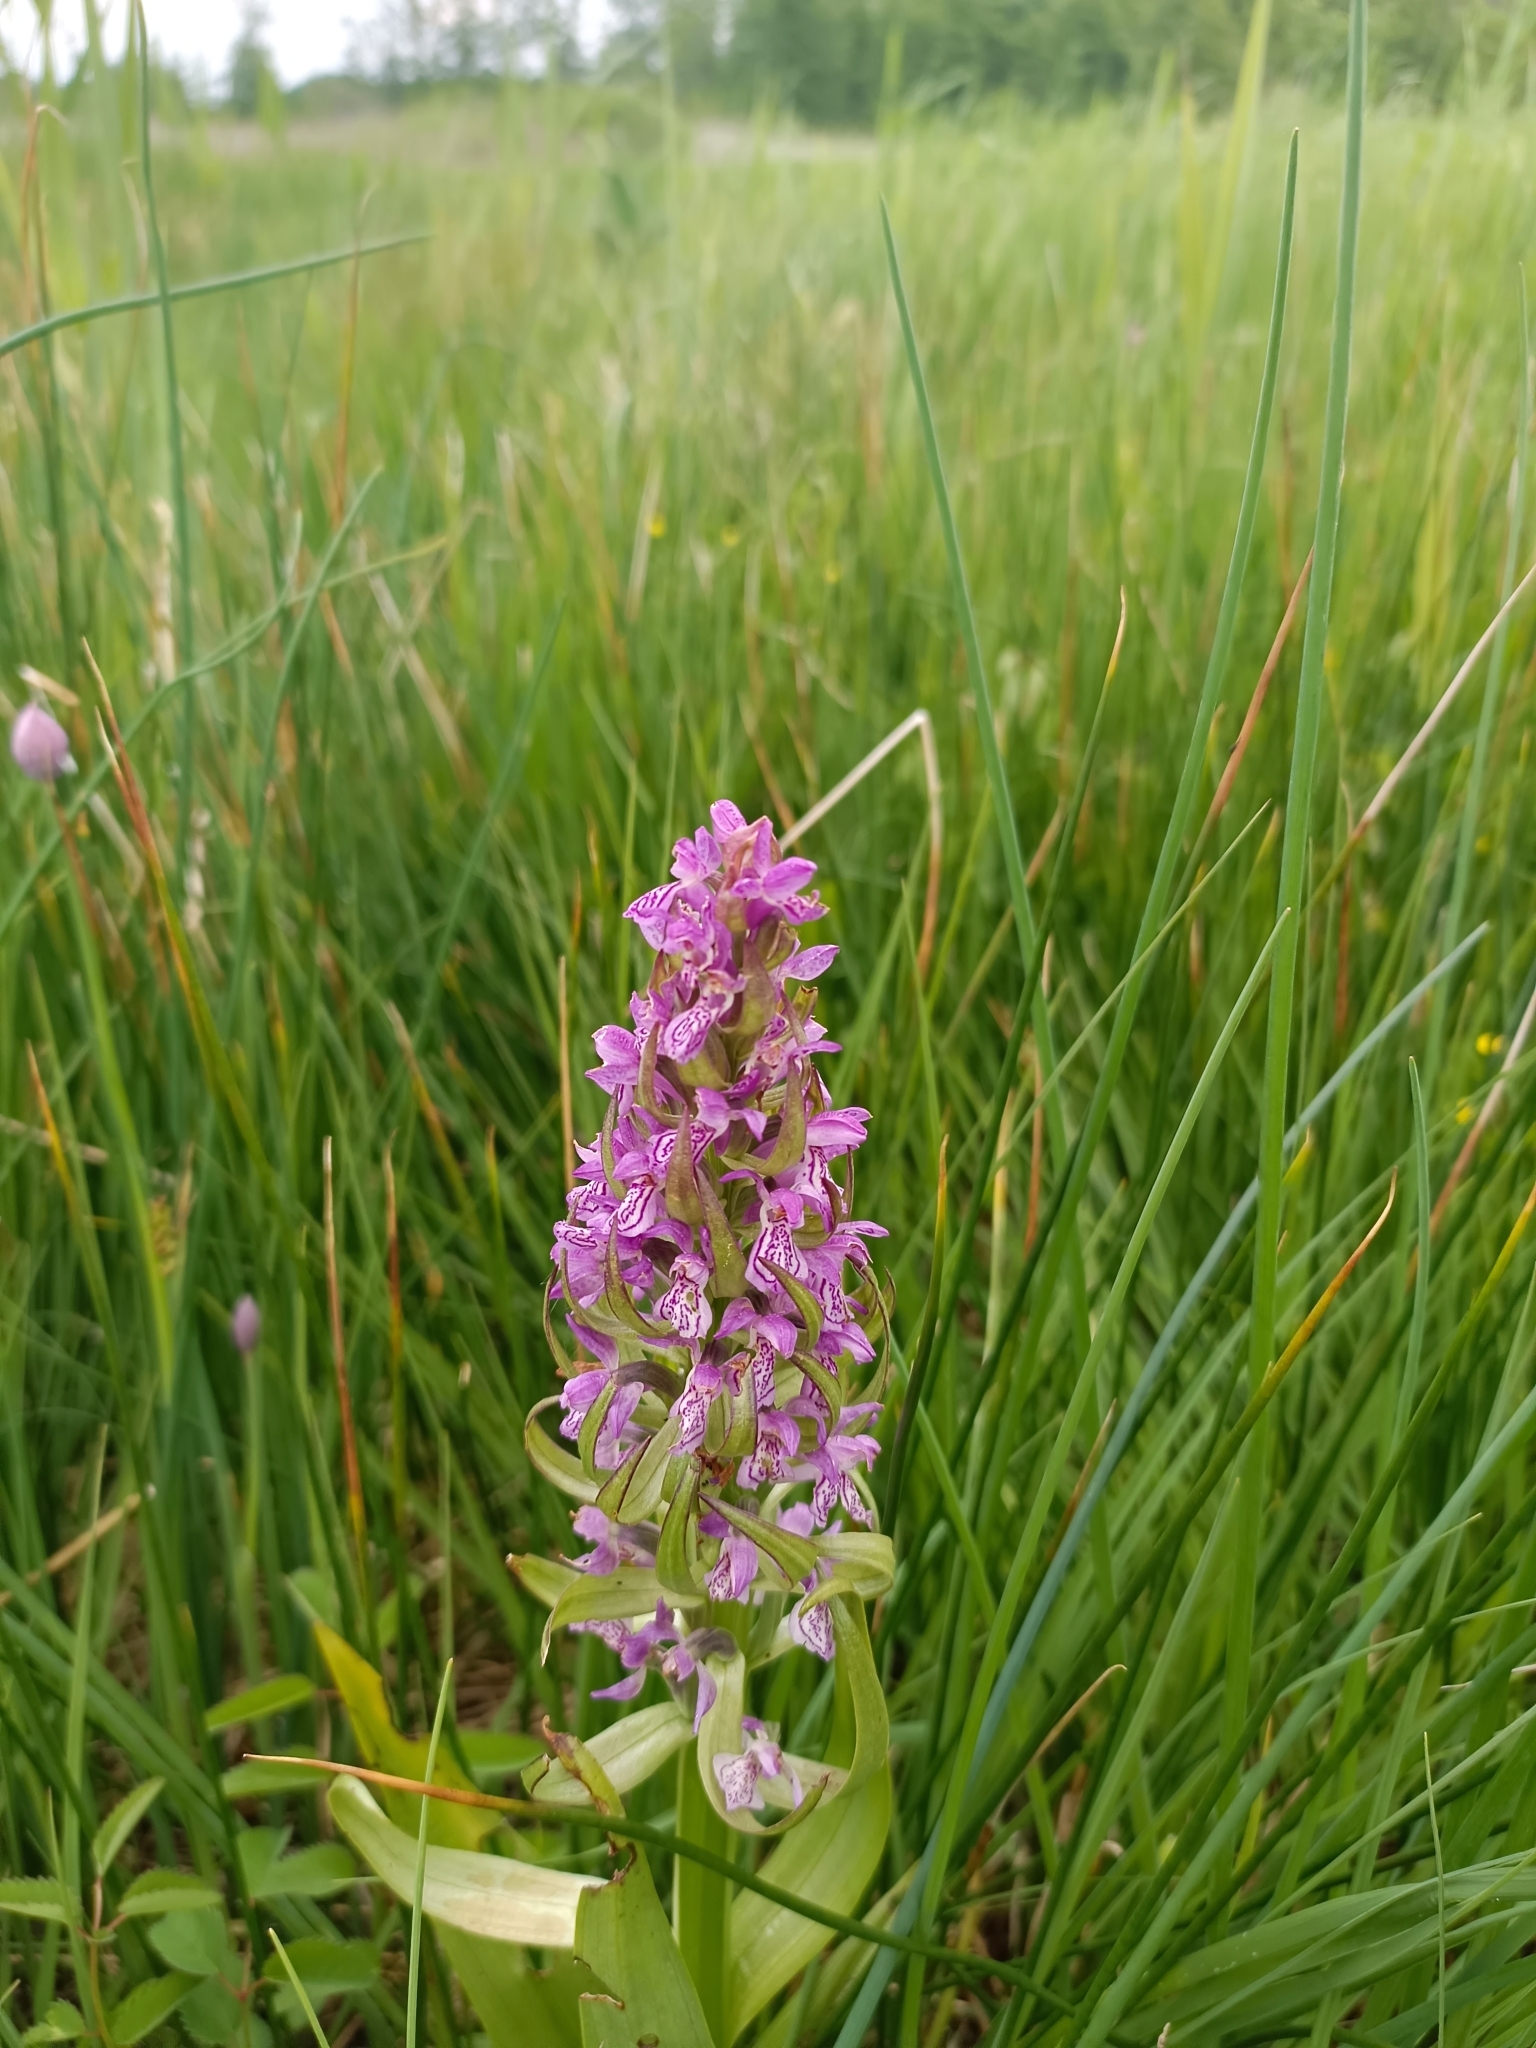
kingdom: Plantae
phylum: Tracheophyta
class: Liliopsida
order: Asparagales
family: Orchidaceae
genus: Dactylorhiza
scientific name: Dactylorhiza incarnata
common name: Early marsh-orchid
